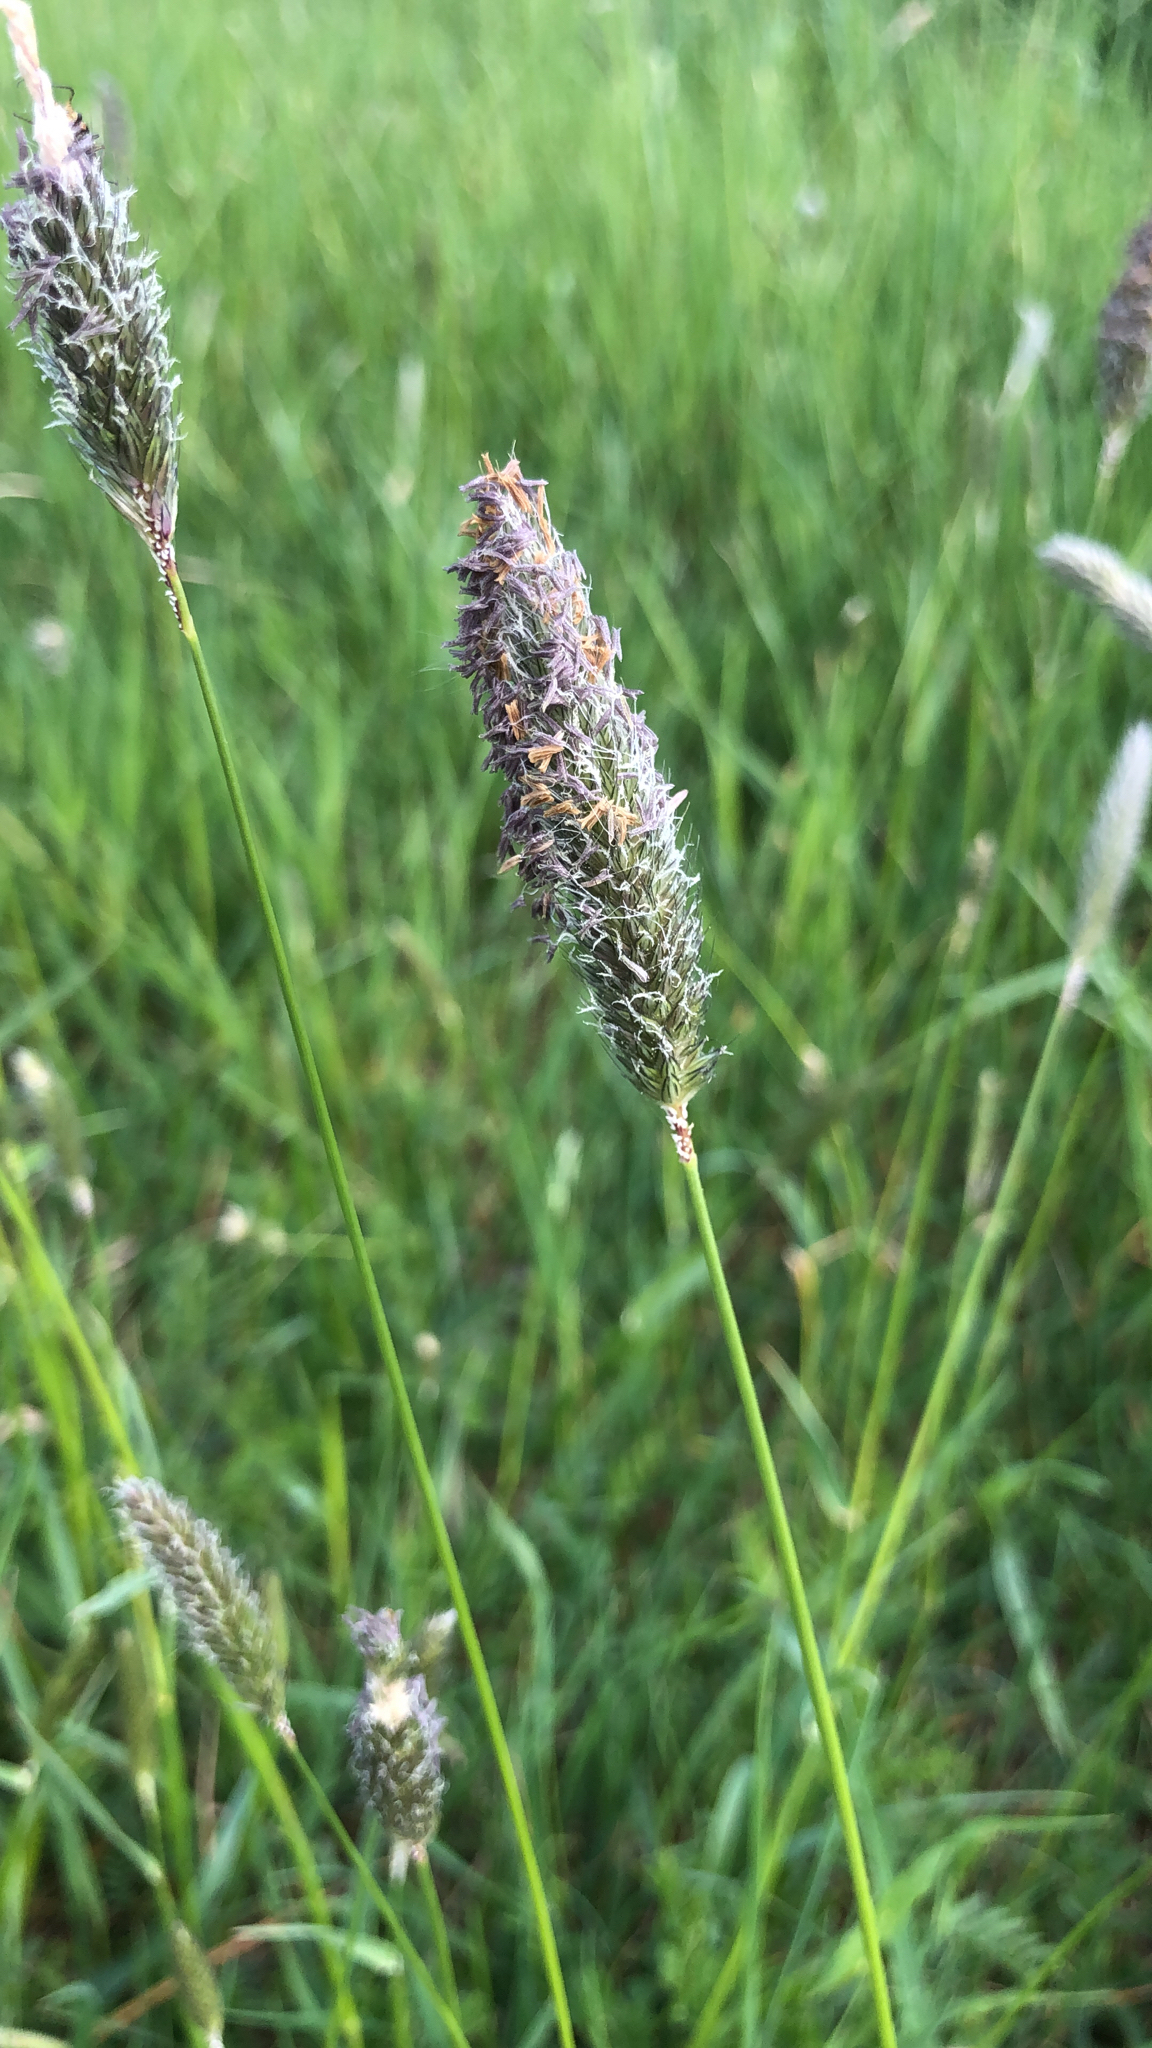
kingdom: Plantae
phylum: Tracheophyta
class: Liliopsida
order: Poales
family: Poaceae
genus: Alopecurus
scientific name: Alopecurus pratensis
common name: Meadow foxtail
